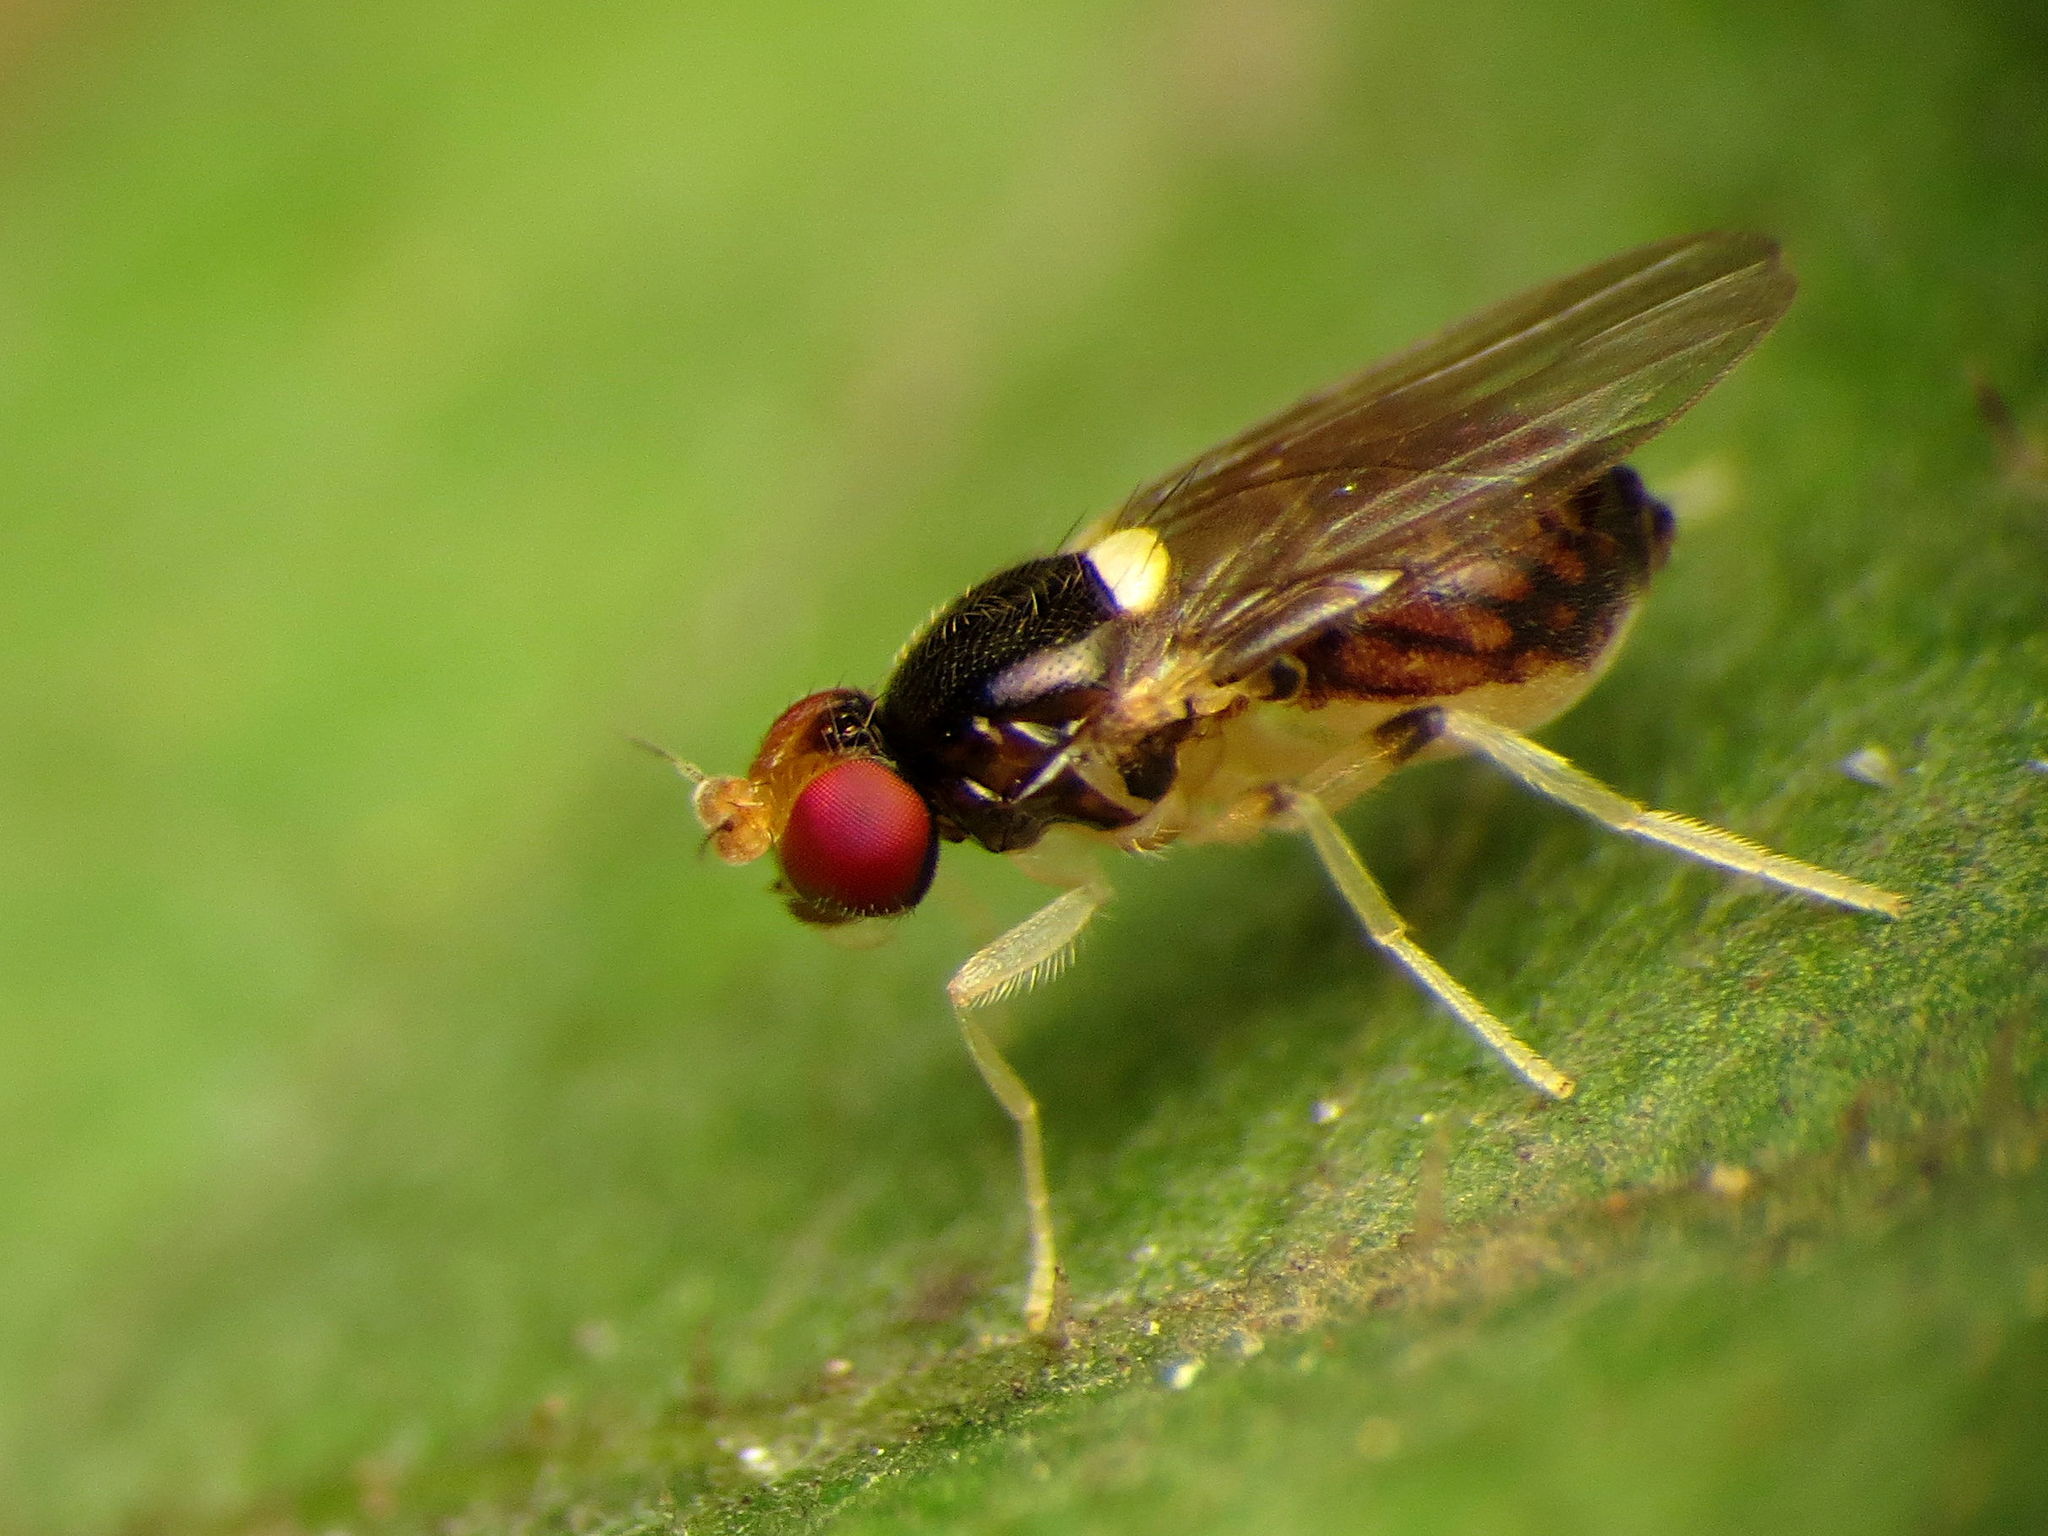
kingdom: Animalia
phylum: Arthropoda
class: Insecta
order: Diptera
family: Chloropidae
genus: Gaurax
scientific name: Gaurax apicalis
